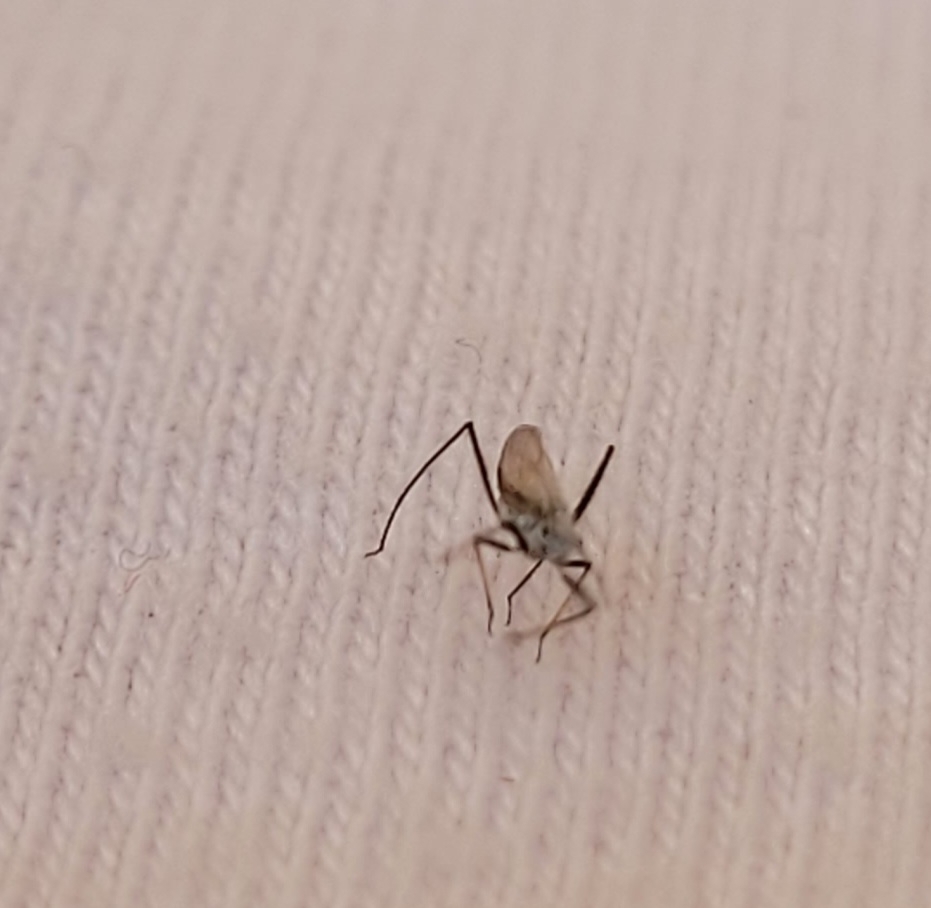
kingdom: Animalia
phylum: Arthropoda
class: Insecta
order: Hemiptera
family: Aphididae
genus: Eulachnus
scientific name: Eulachnus rileyi
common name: Active gray pine needle aphid
